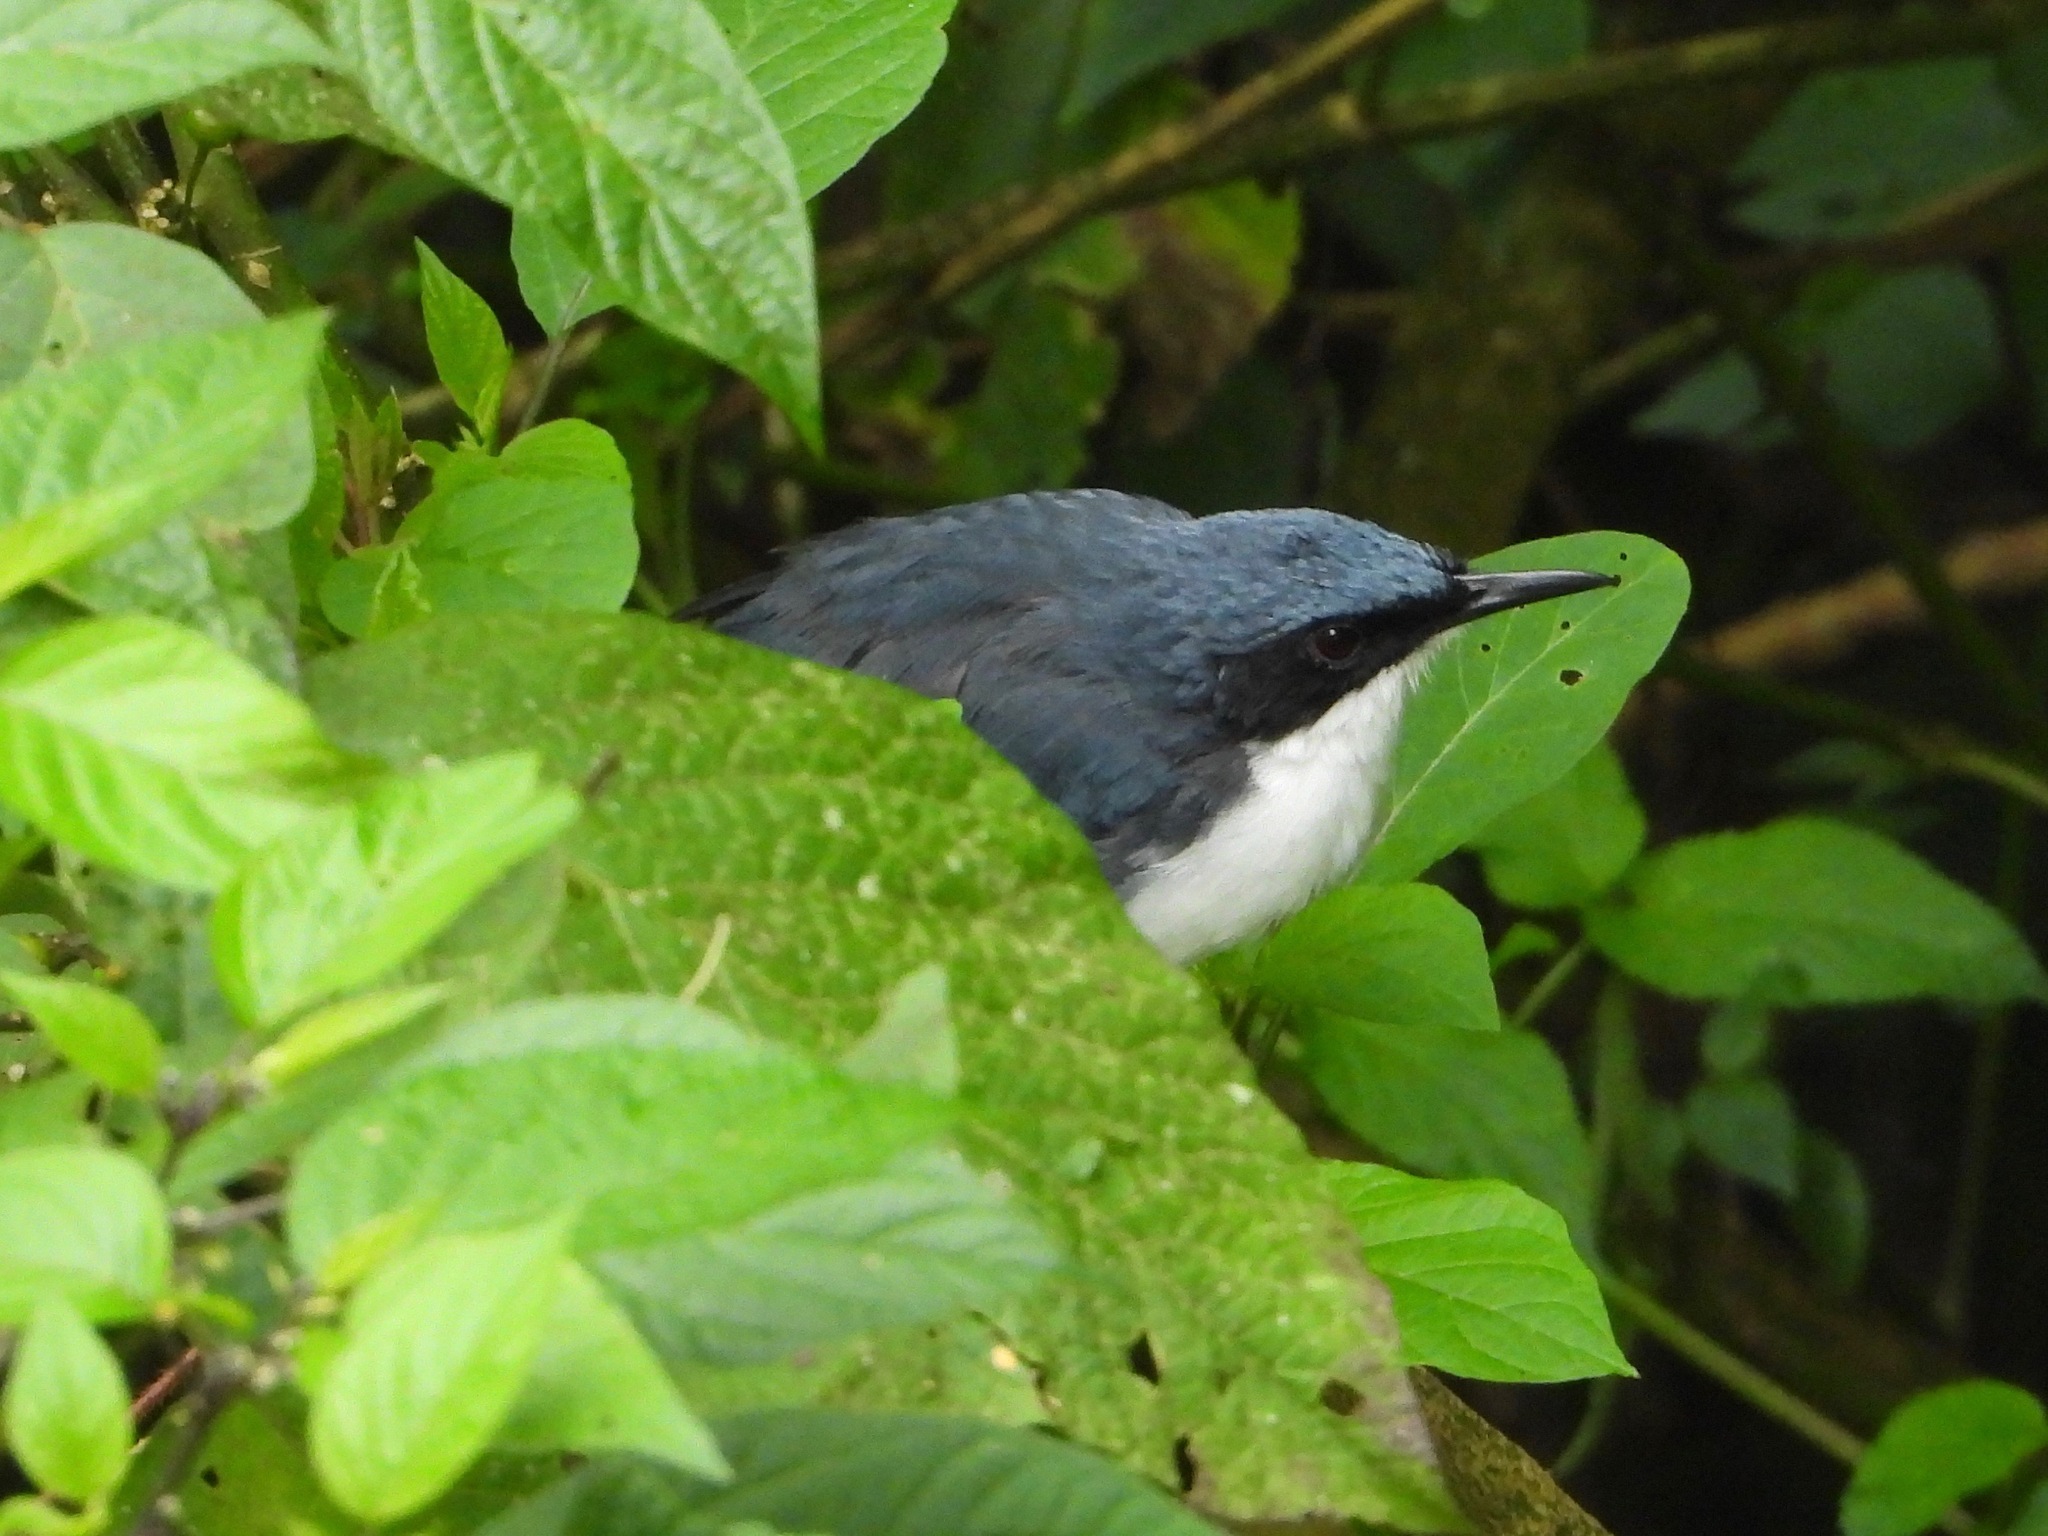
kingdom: Animalia
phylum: Chordata
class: Aves
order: Passeriformes
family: Mimidae
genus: Melanotis
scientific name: Melanotis hypoleucus
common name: Blue-and-white mockingbird
